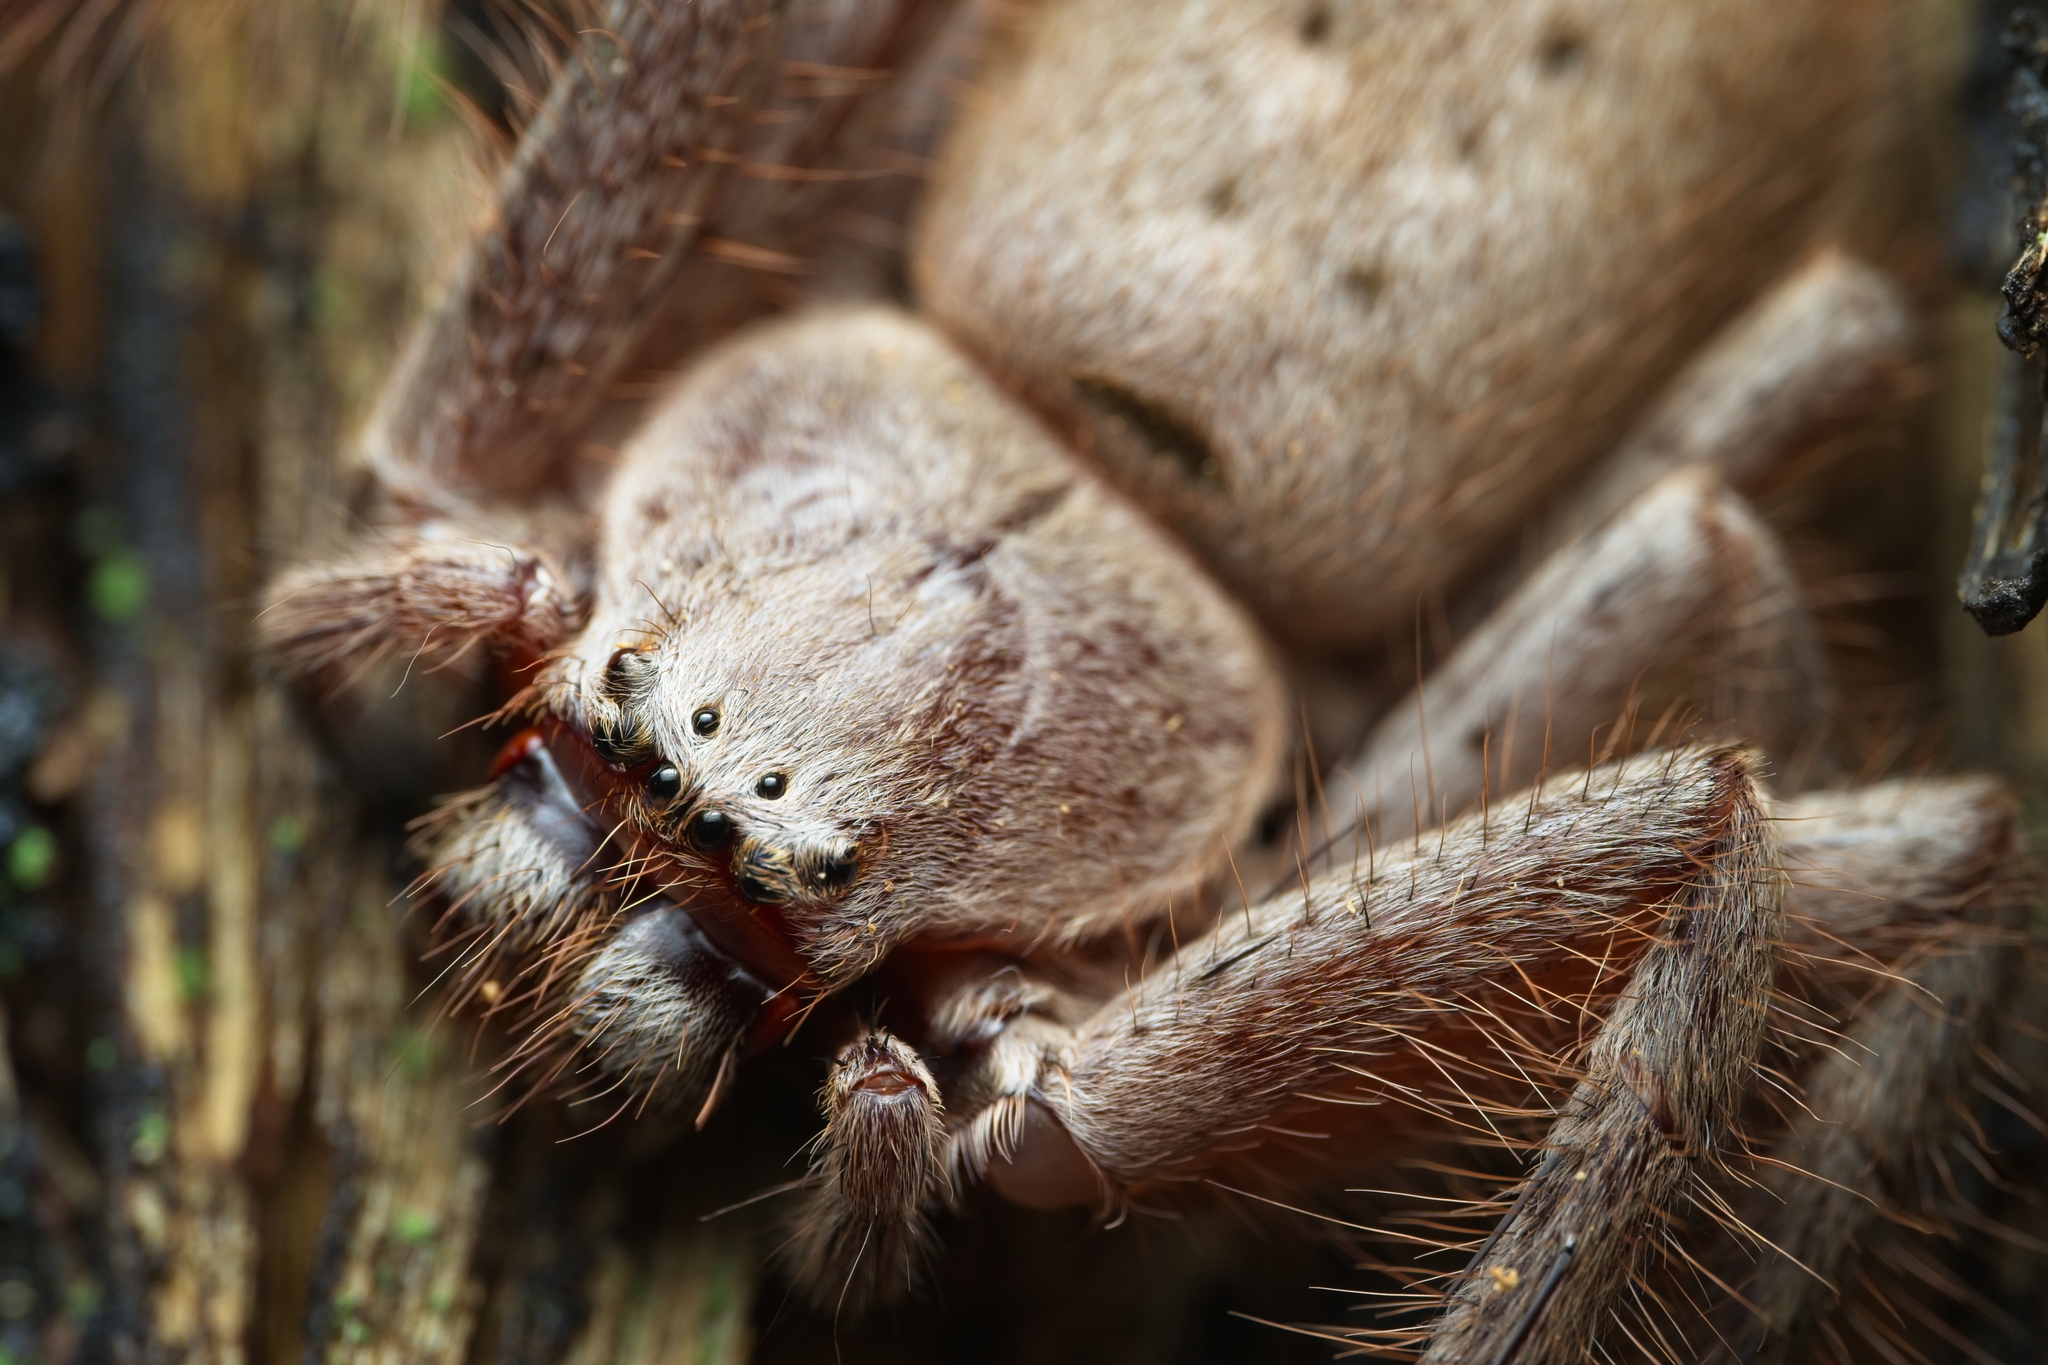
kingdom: Animalia
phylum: Arthropoda
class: Arachnida
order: Araneae
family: Sparassidae
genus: Isopeda
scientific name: Isopeda villosa
